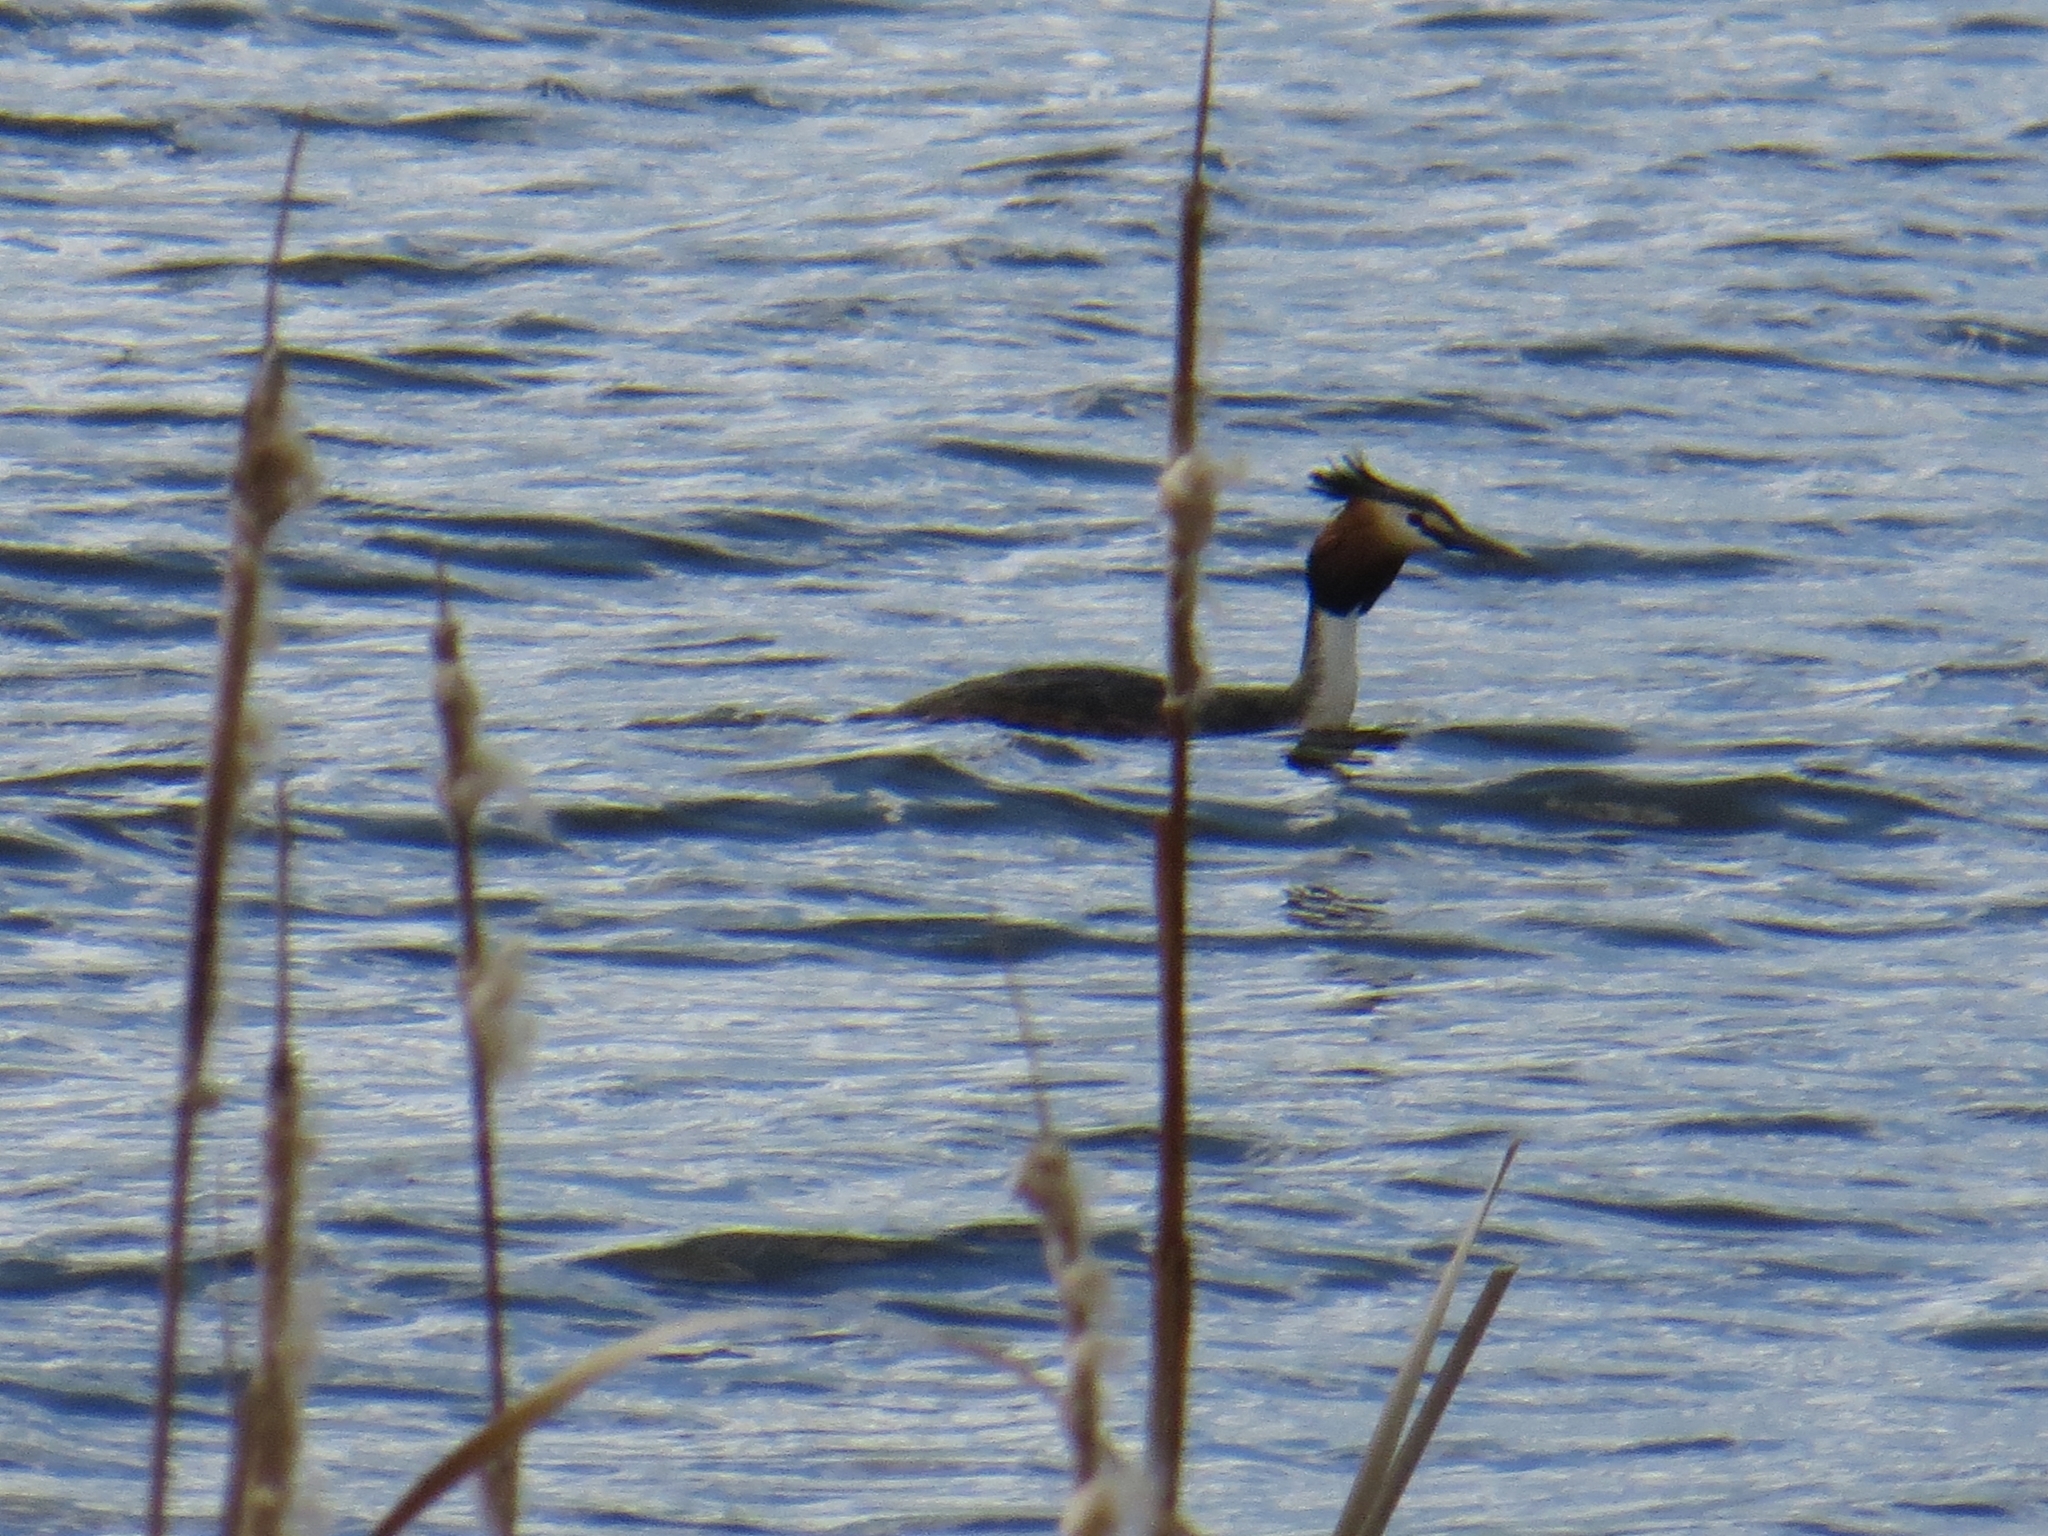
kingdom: Animalia
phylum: Chordata
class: Aves
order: Podicipediformes
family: Podicipedidae
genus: Podiceps
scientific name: Podiceps cristatus
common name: Great crested grebe
